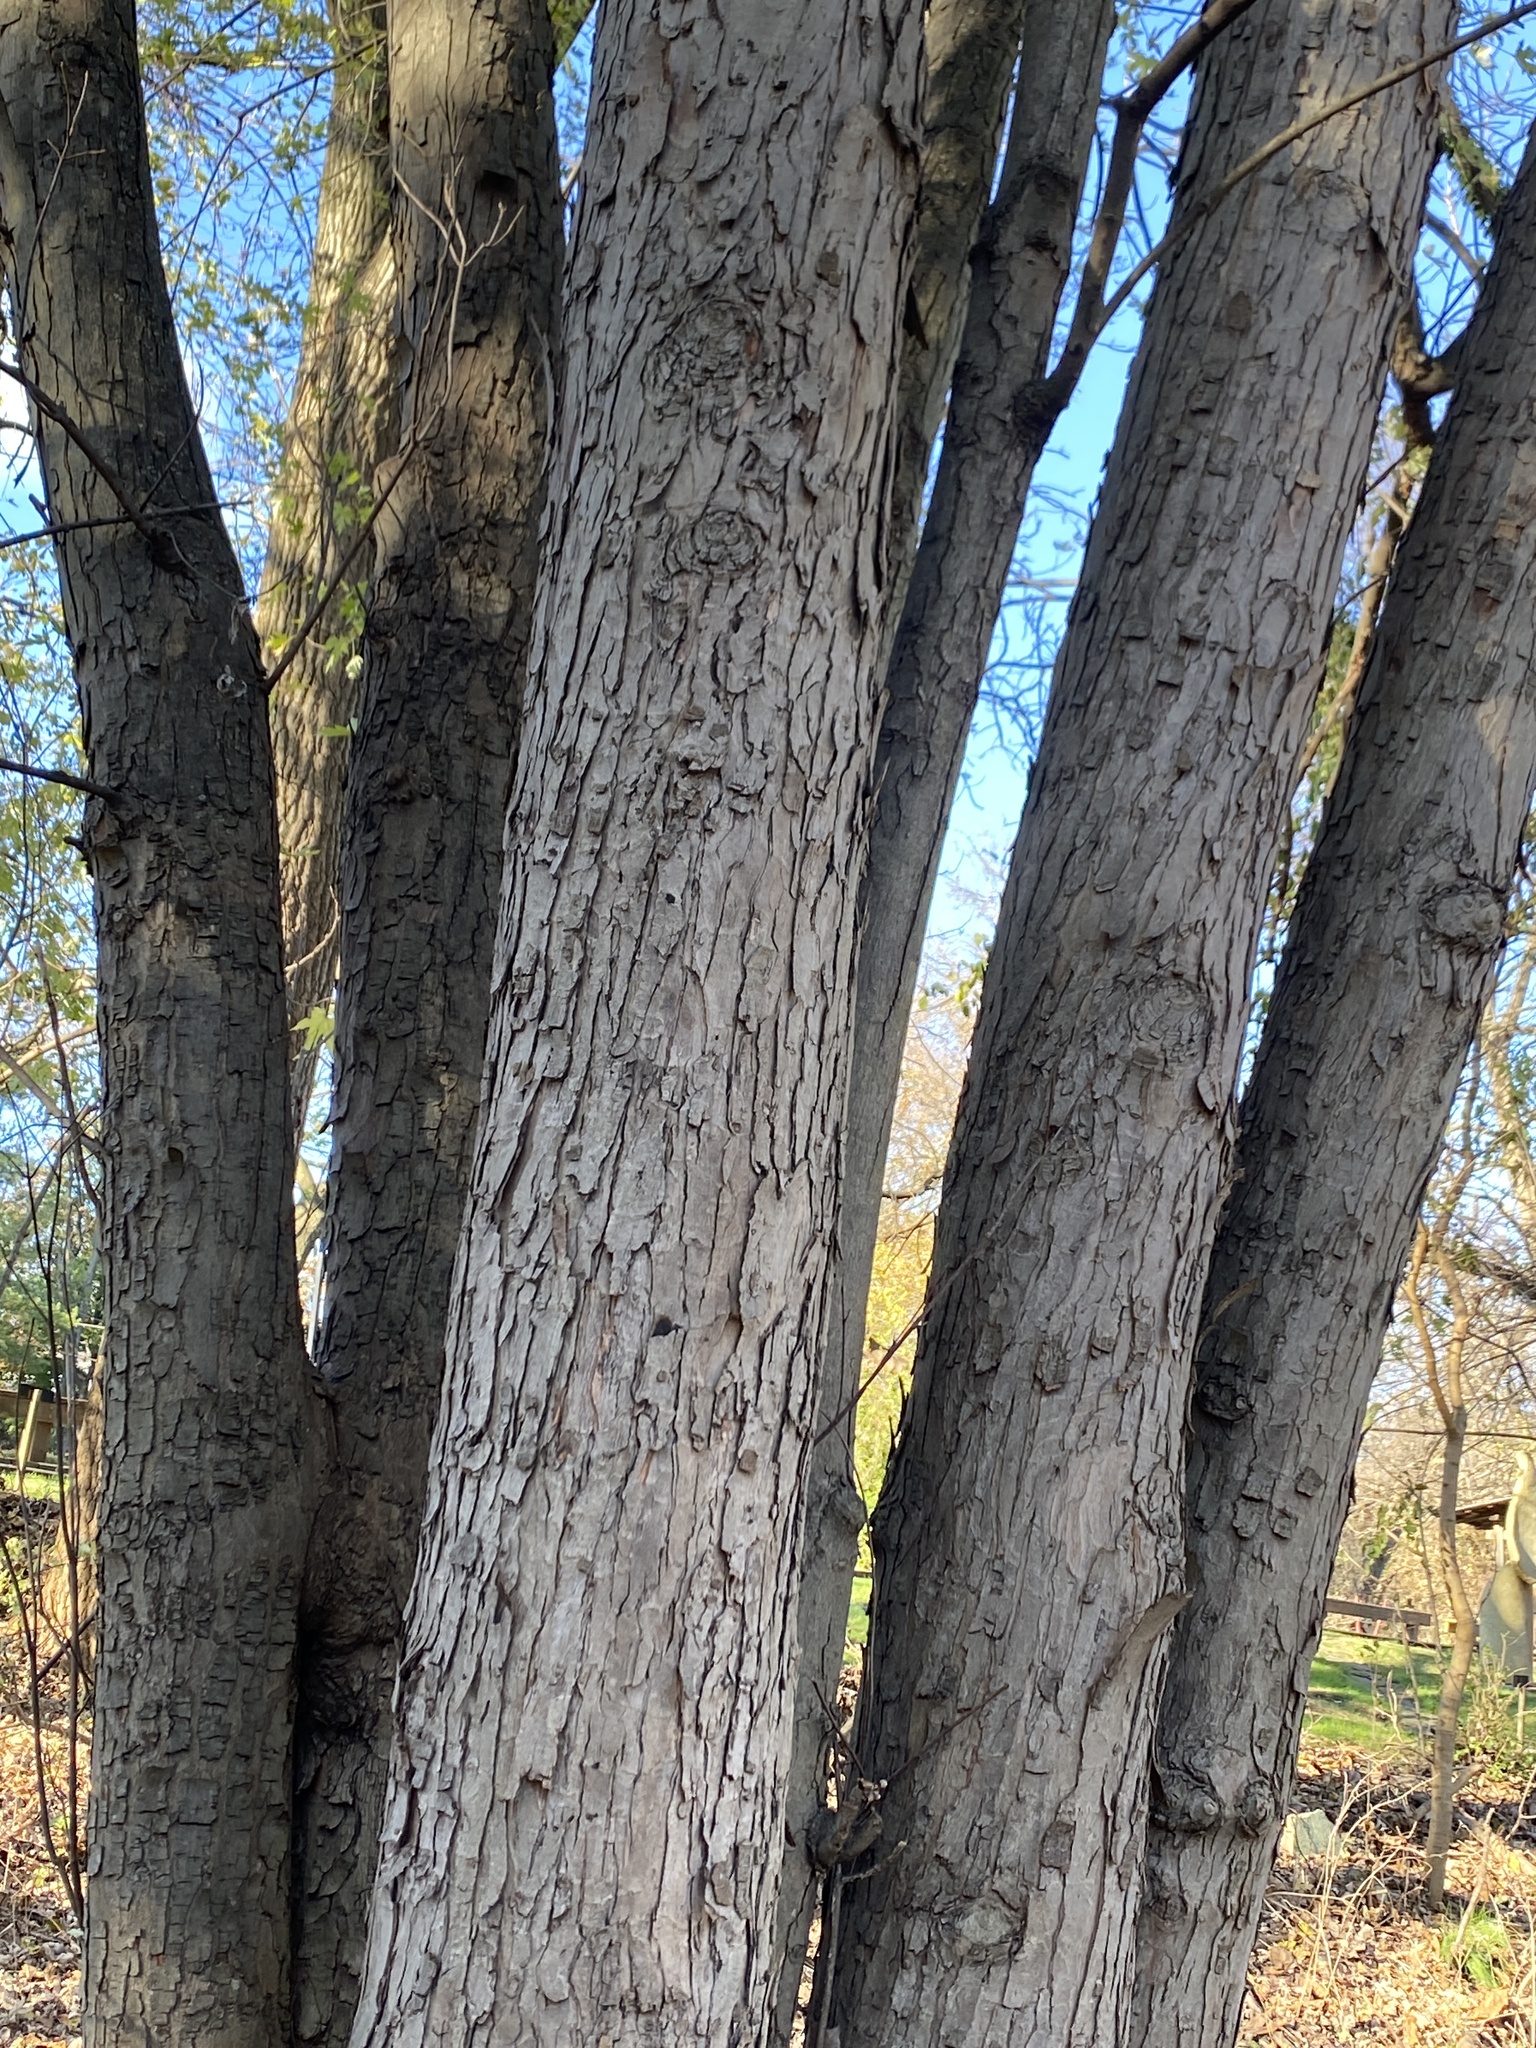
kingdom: Plantae
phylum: Tracheophyta
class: Magnoliopsida
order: Sapindales
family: Sapindaceae
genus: Acer
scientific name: Acer saccharinum
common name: Silver maple
